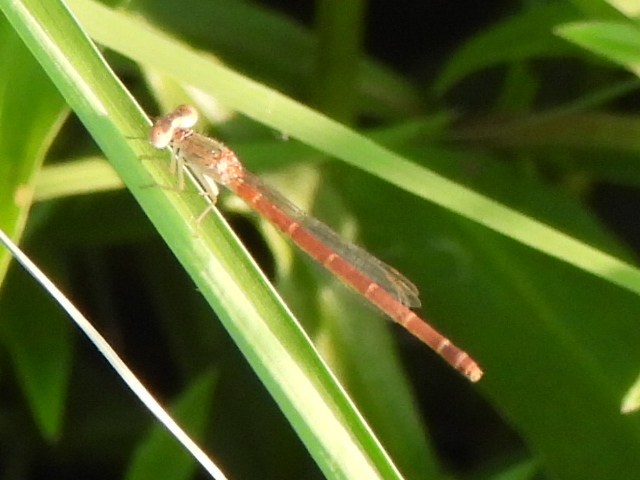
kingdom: Animalia
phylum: Arthropoda
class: Insecta
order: Odonata
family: Coenagrionidae
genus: Telebasis
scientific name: Telebasis salva
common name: Desert firetail
